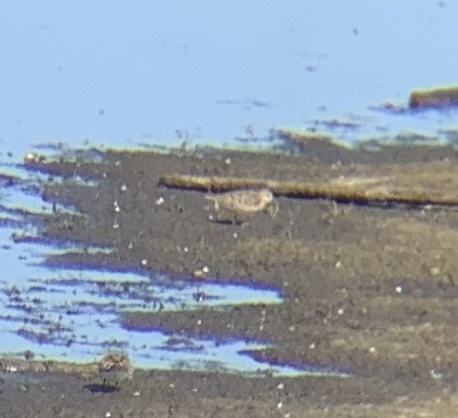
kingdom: Animalia
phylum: Chordata
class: Aves
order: Charadriiformes
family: Scolopacidae
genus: Calidris
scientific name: Calidris temminckii
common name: Temminck's stint
